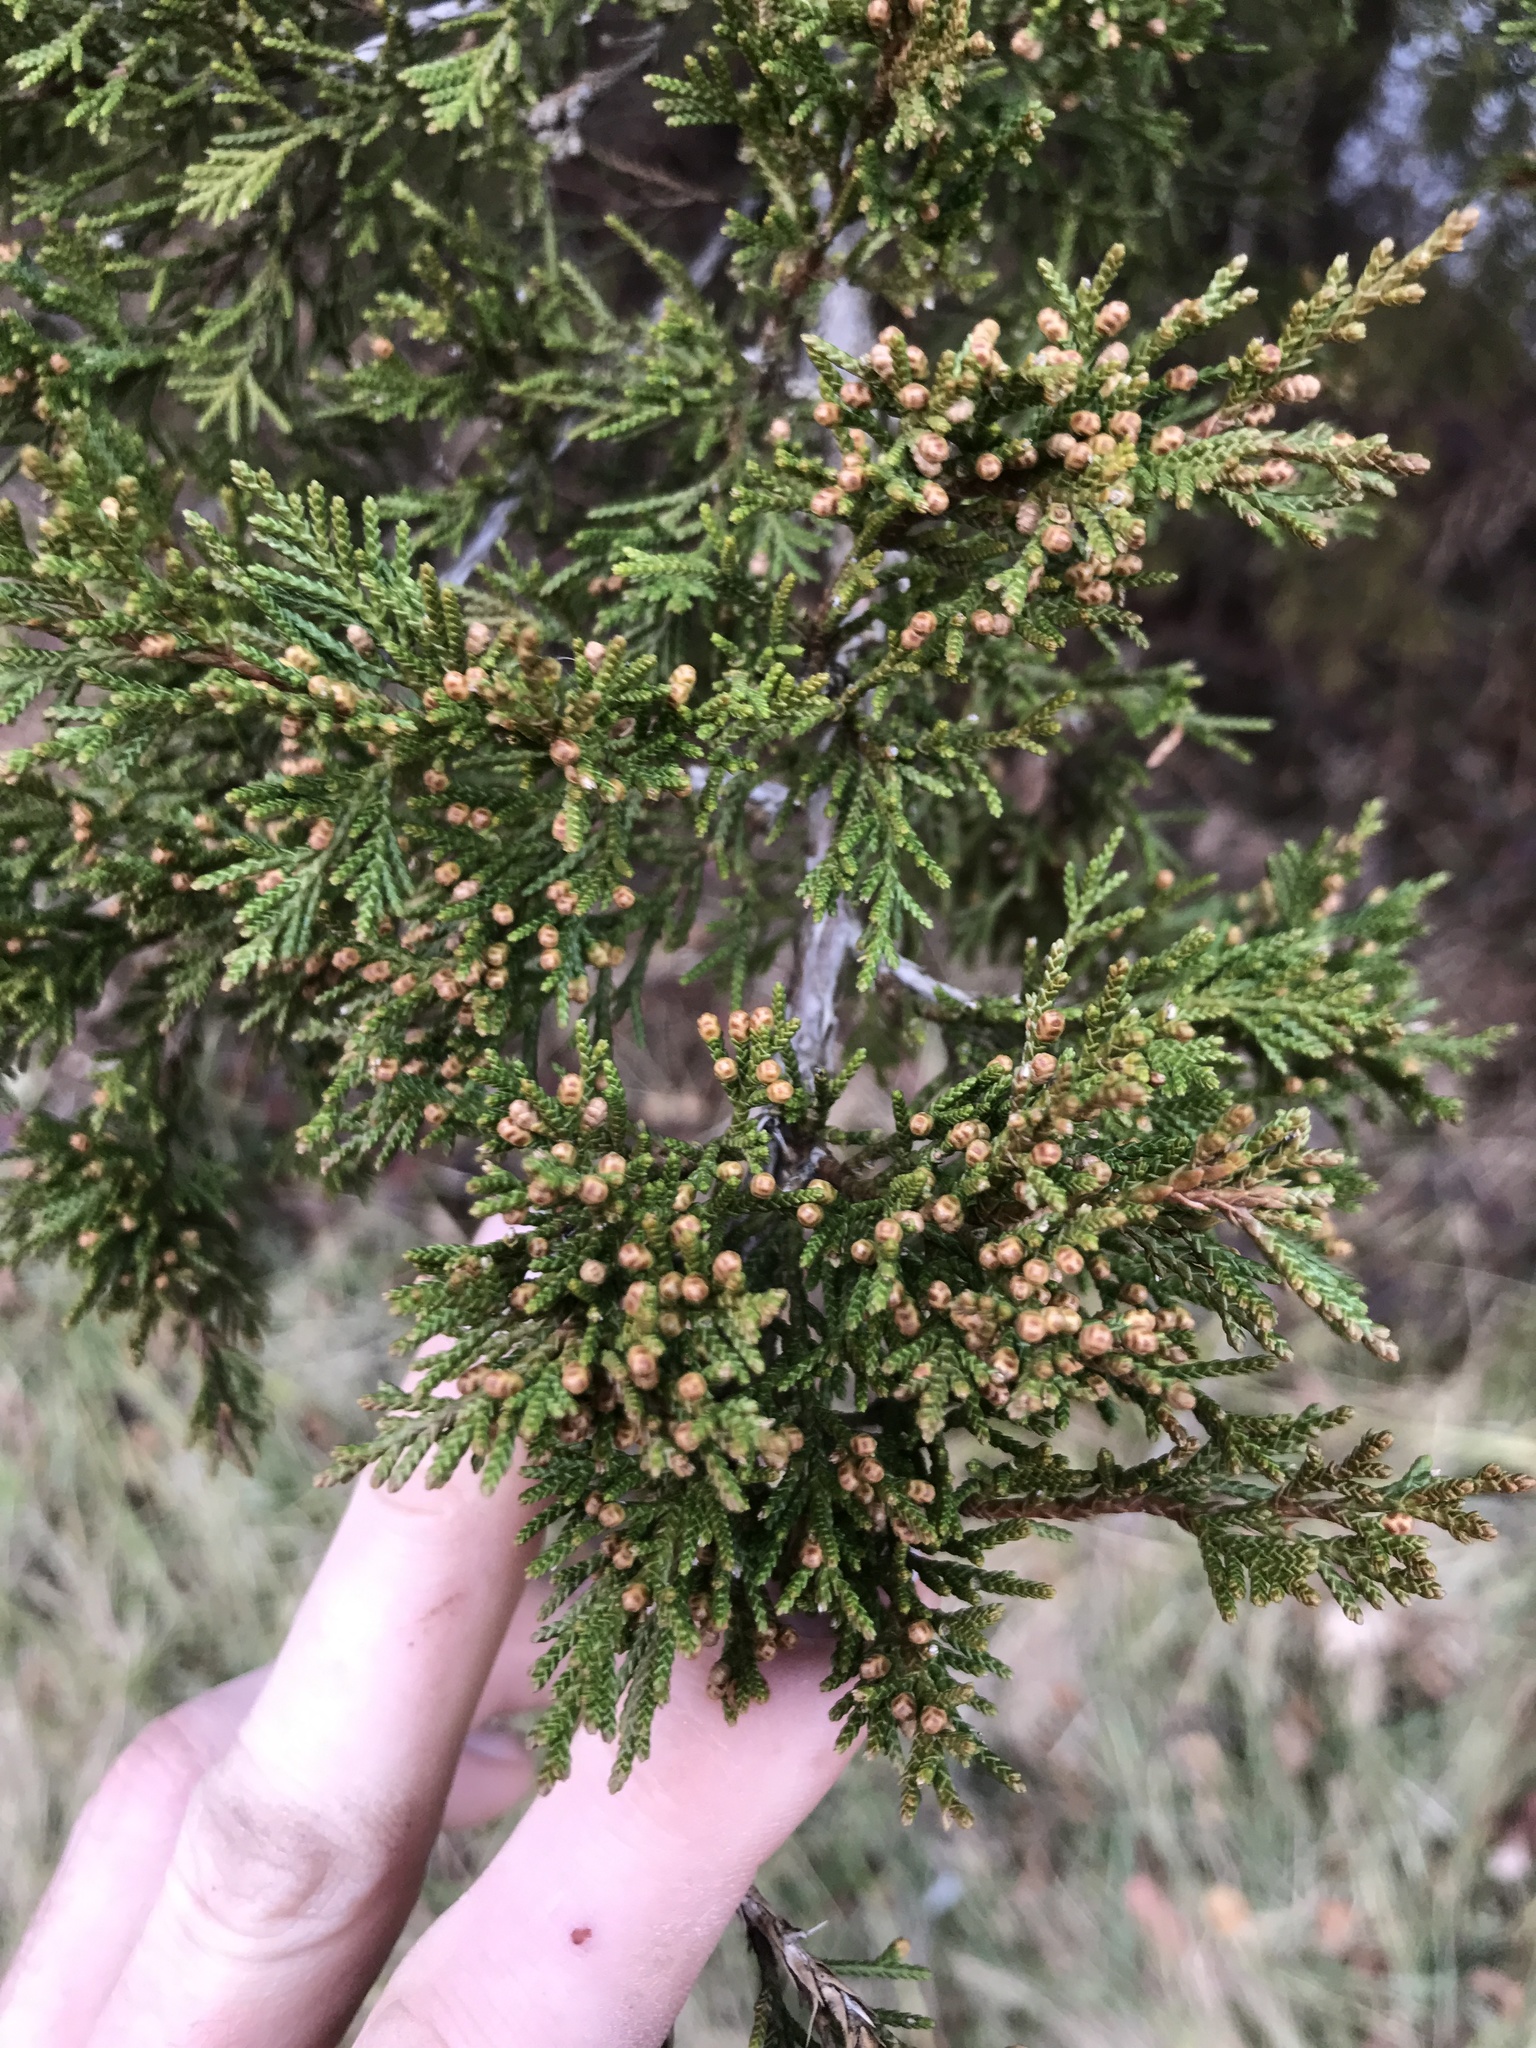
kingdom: Plantae
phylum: Tracheophyta
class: Pinopsida
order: Pinales
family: Cupressaceae
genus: Juniperus
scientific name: Juniperus virginiana
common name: Red juniper
